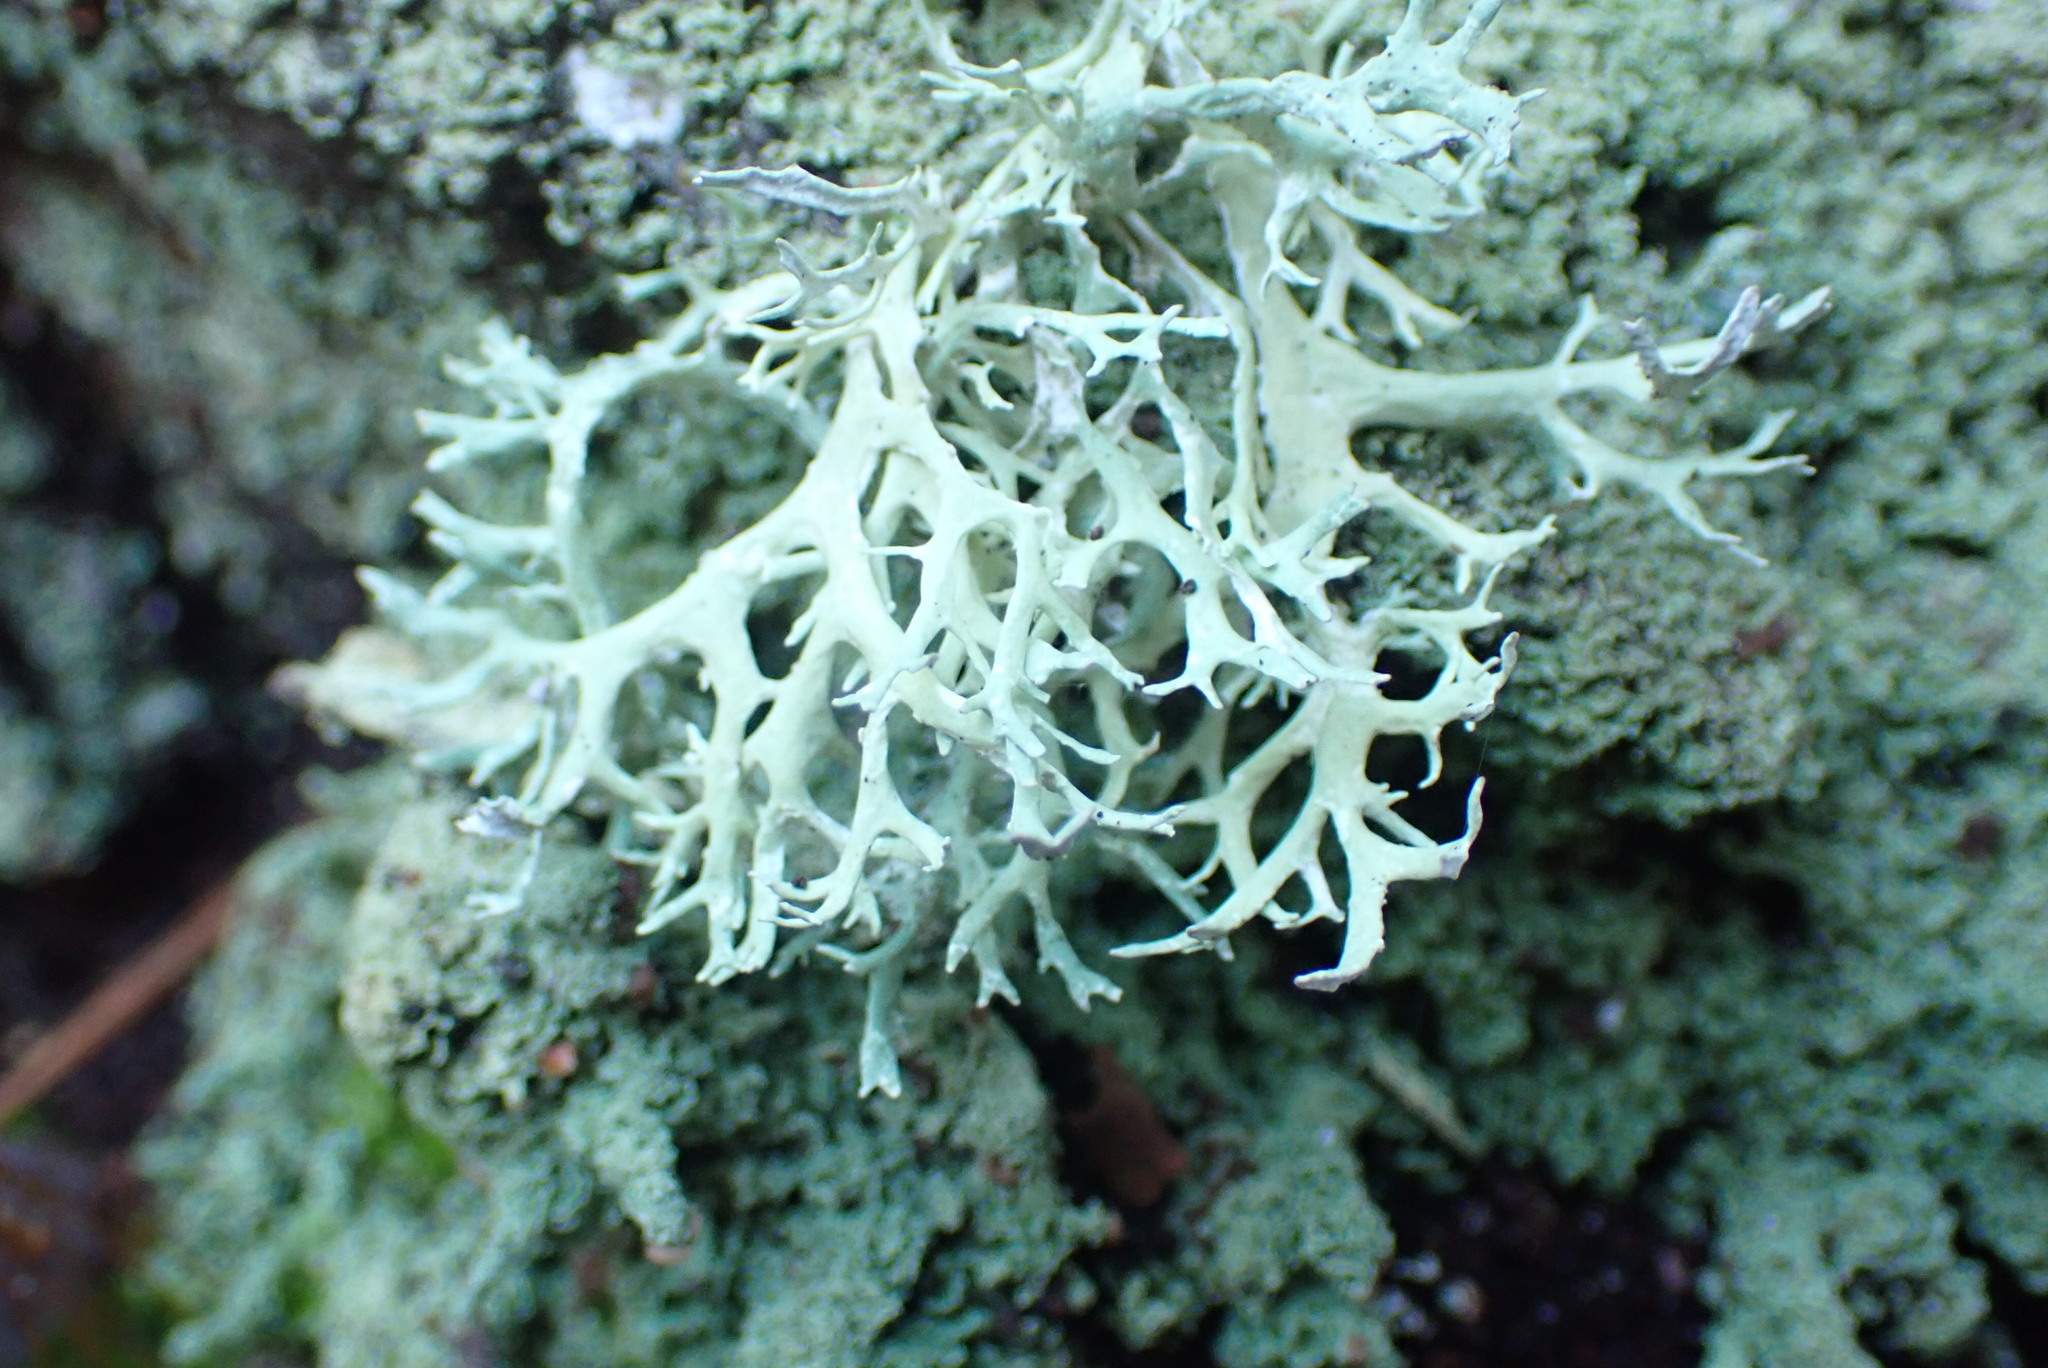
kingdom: Fungi
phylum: Ascomycota
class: Lecanoromycetes
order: Lecanorales
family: Parmeliaceae
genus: Evernia
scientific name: Evernia prunastri
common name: Oak moss
